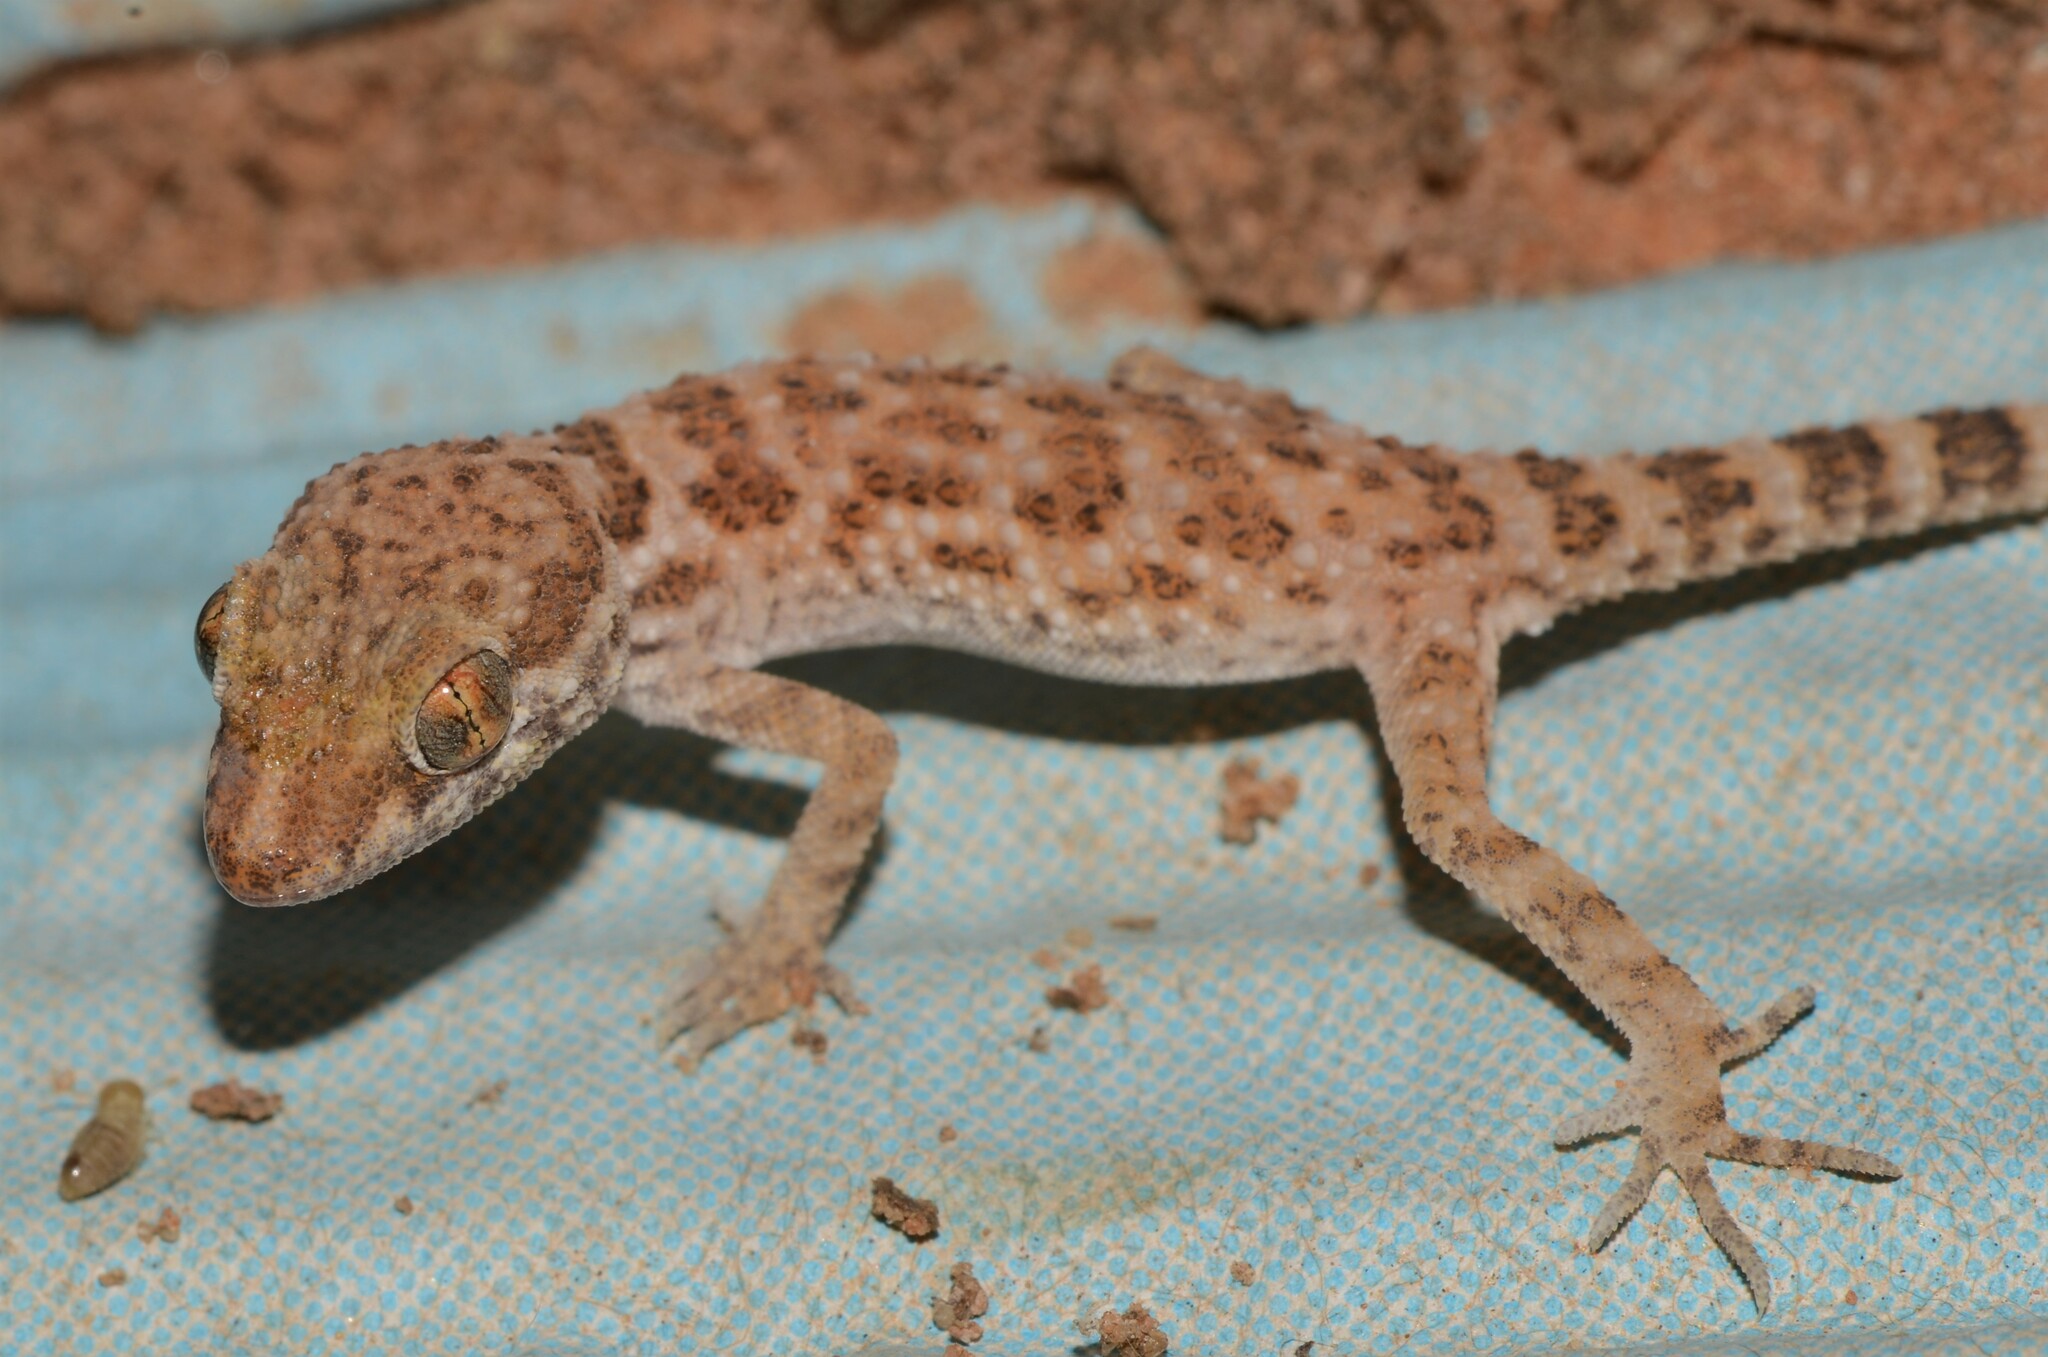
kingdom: Animalia
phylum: Chordata
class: Squamata
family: Gekkonidae
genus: Bunopus
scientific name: Bunopus tuberculatus
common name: Southern tuberculated gecko
